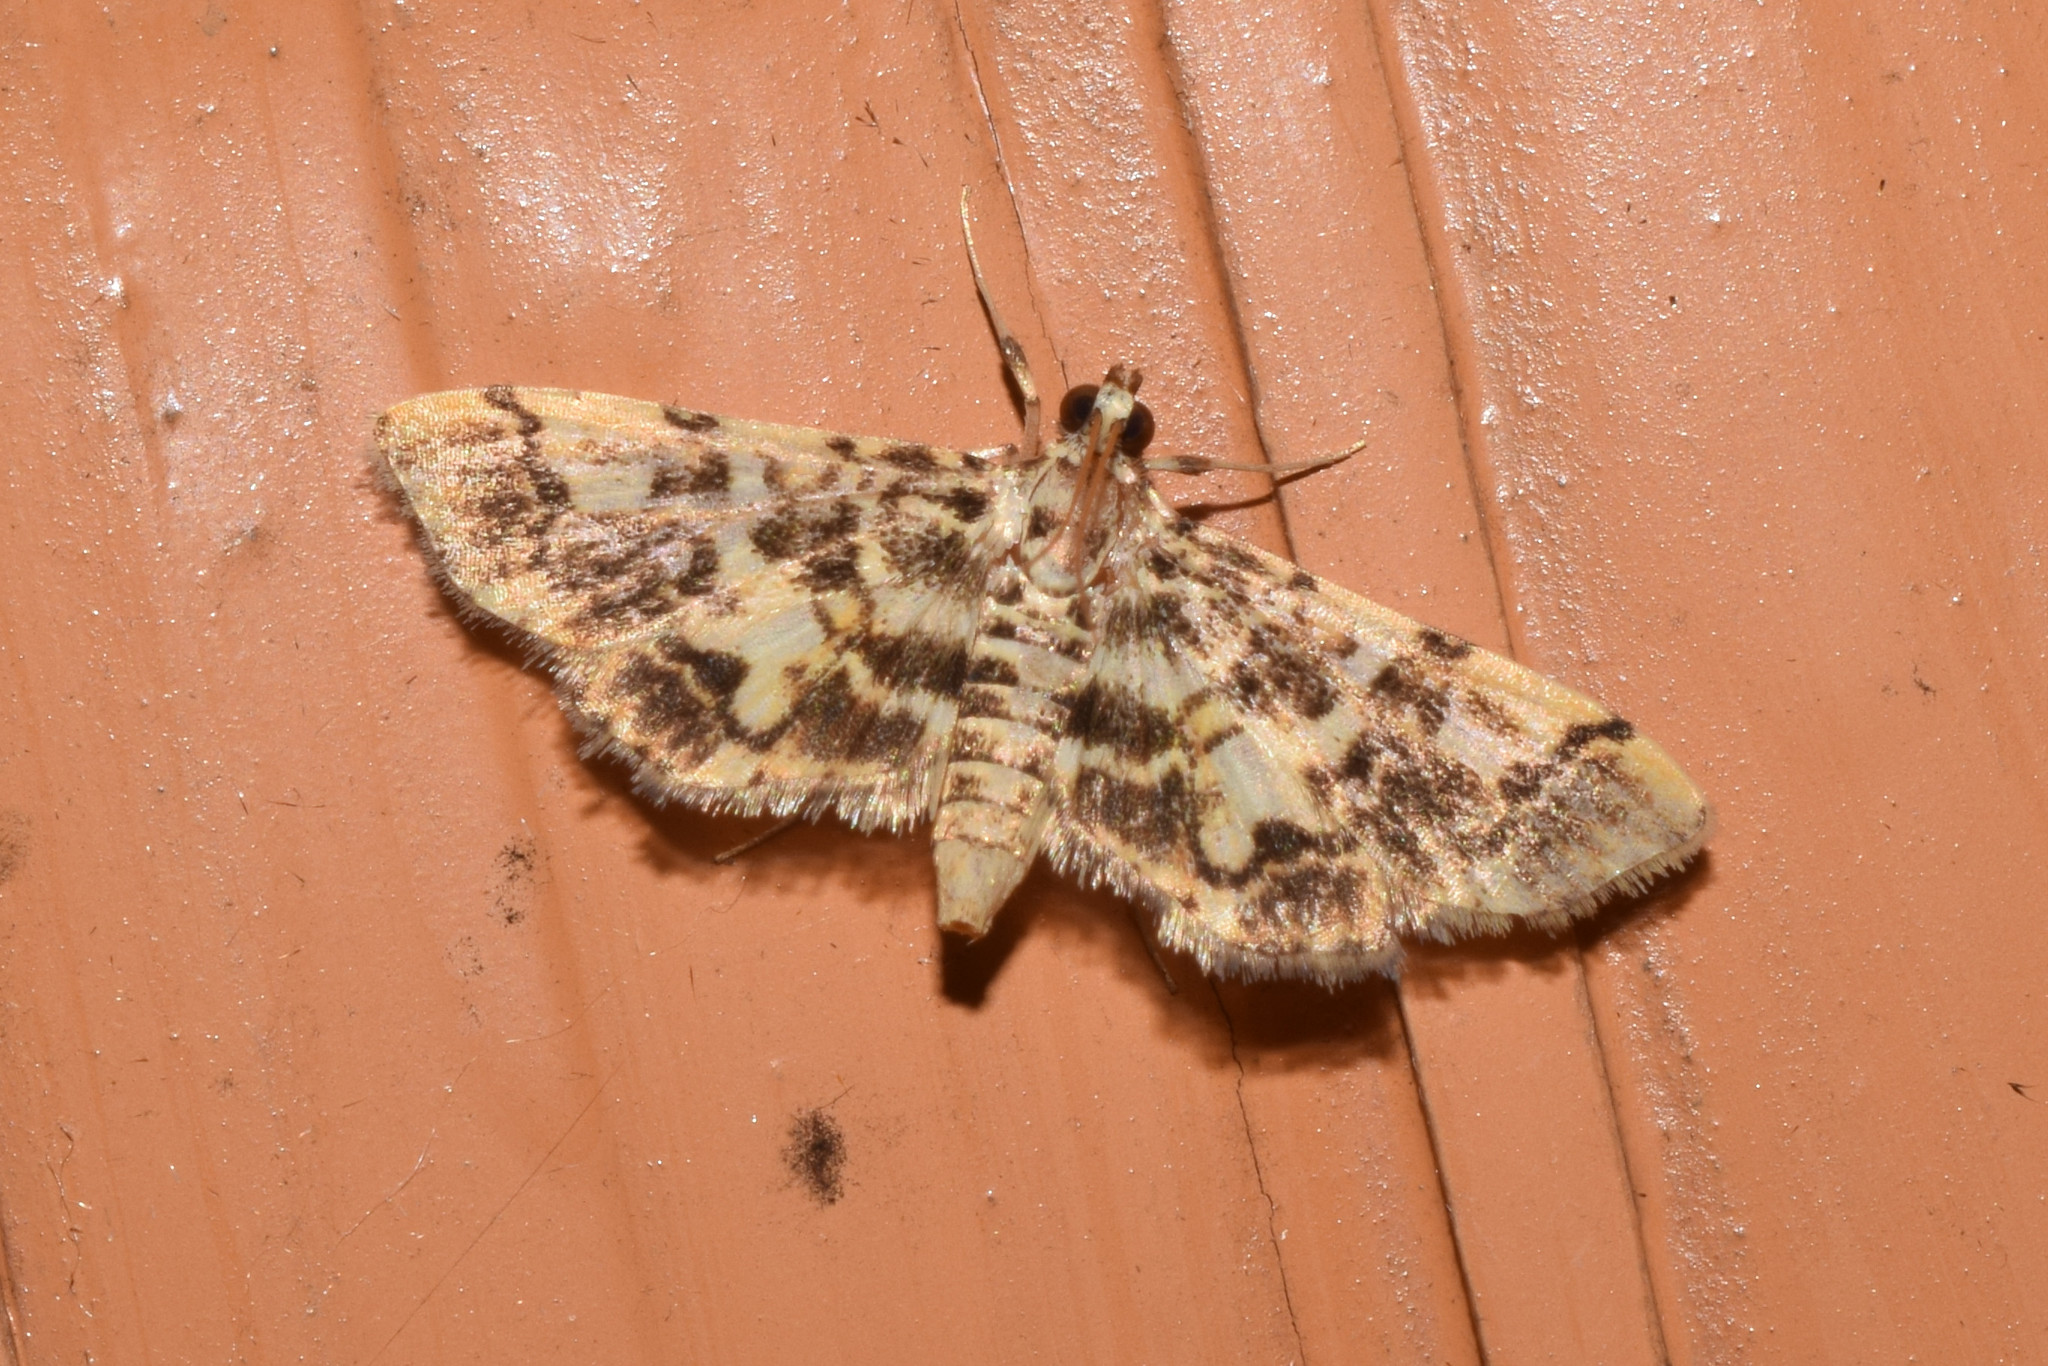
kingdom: Animalia
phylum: Arthropoda
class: Insecta
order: Lepidoptera
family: Crambidae
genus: Lamprosema
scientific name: Lamprosema commixta
